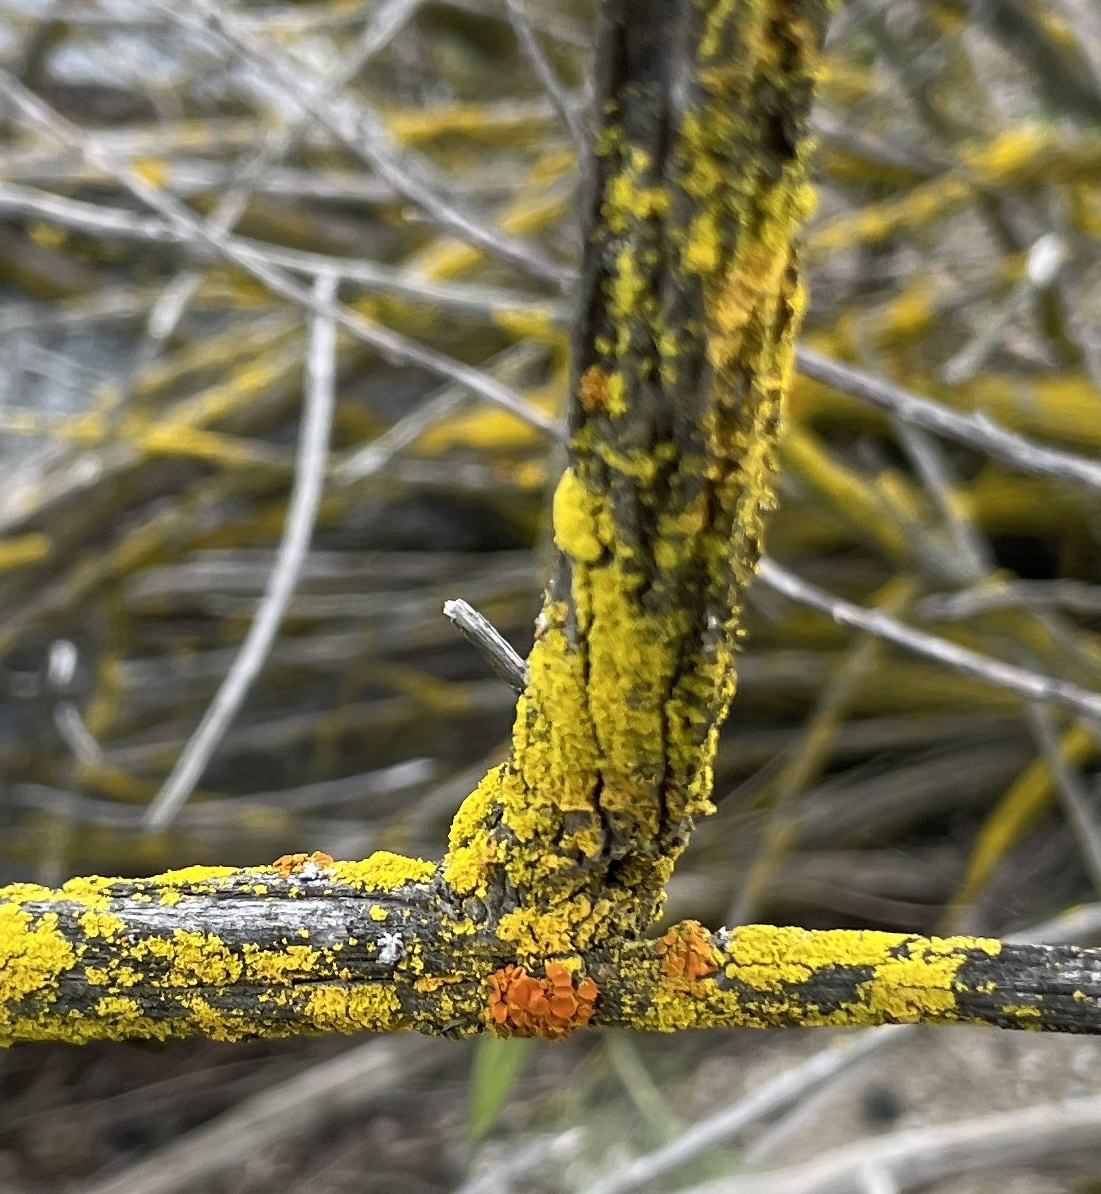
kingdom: Fungi
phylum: Ascomycota
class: Candelariomycetes
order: Candelariales
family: Candelariaceae
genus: Candelaria
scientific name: Candelaria pacifica
